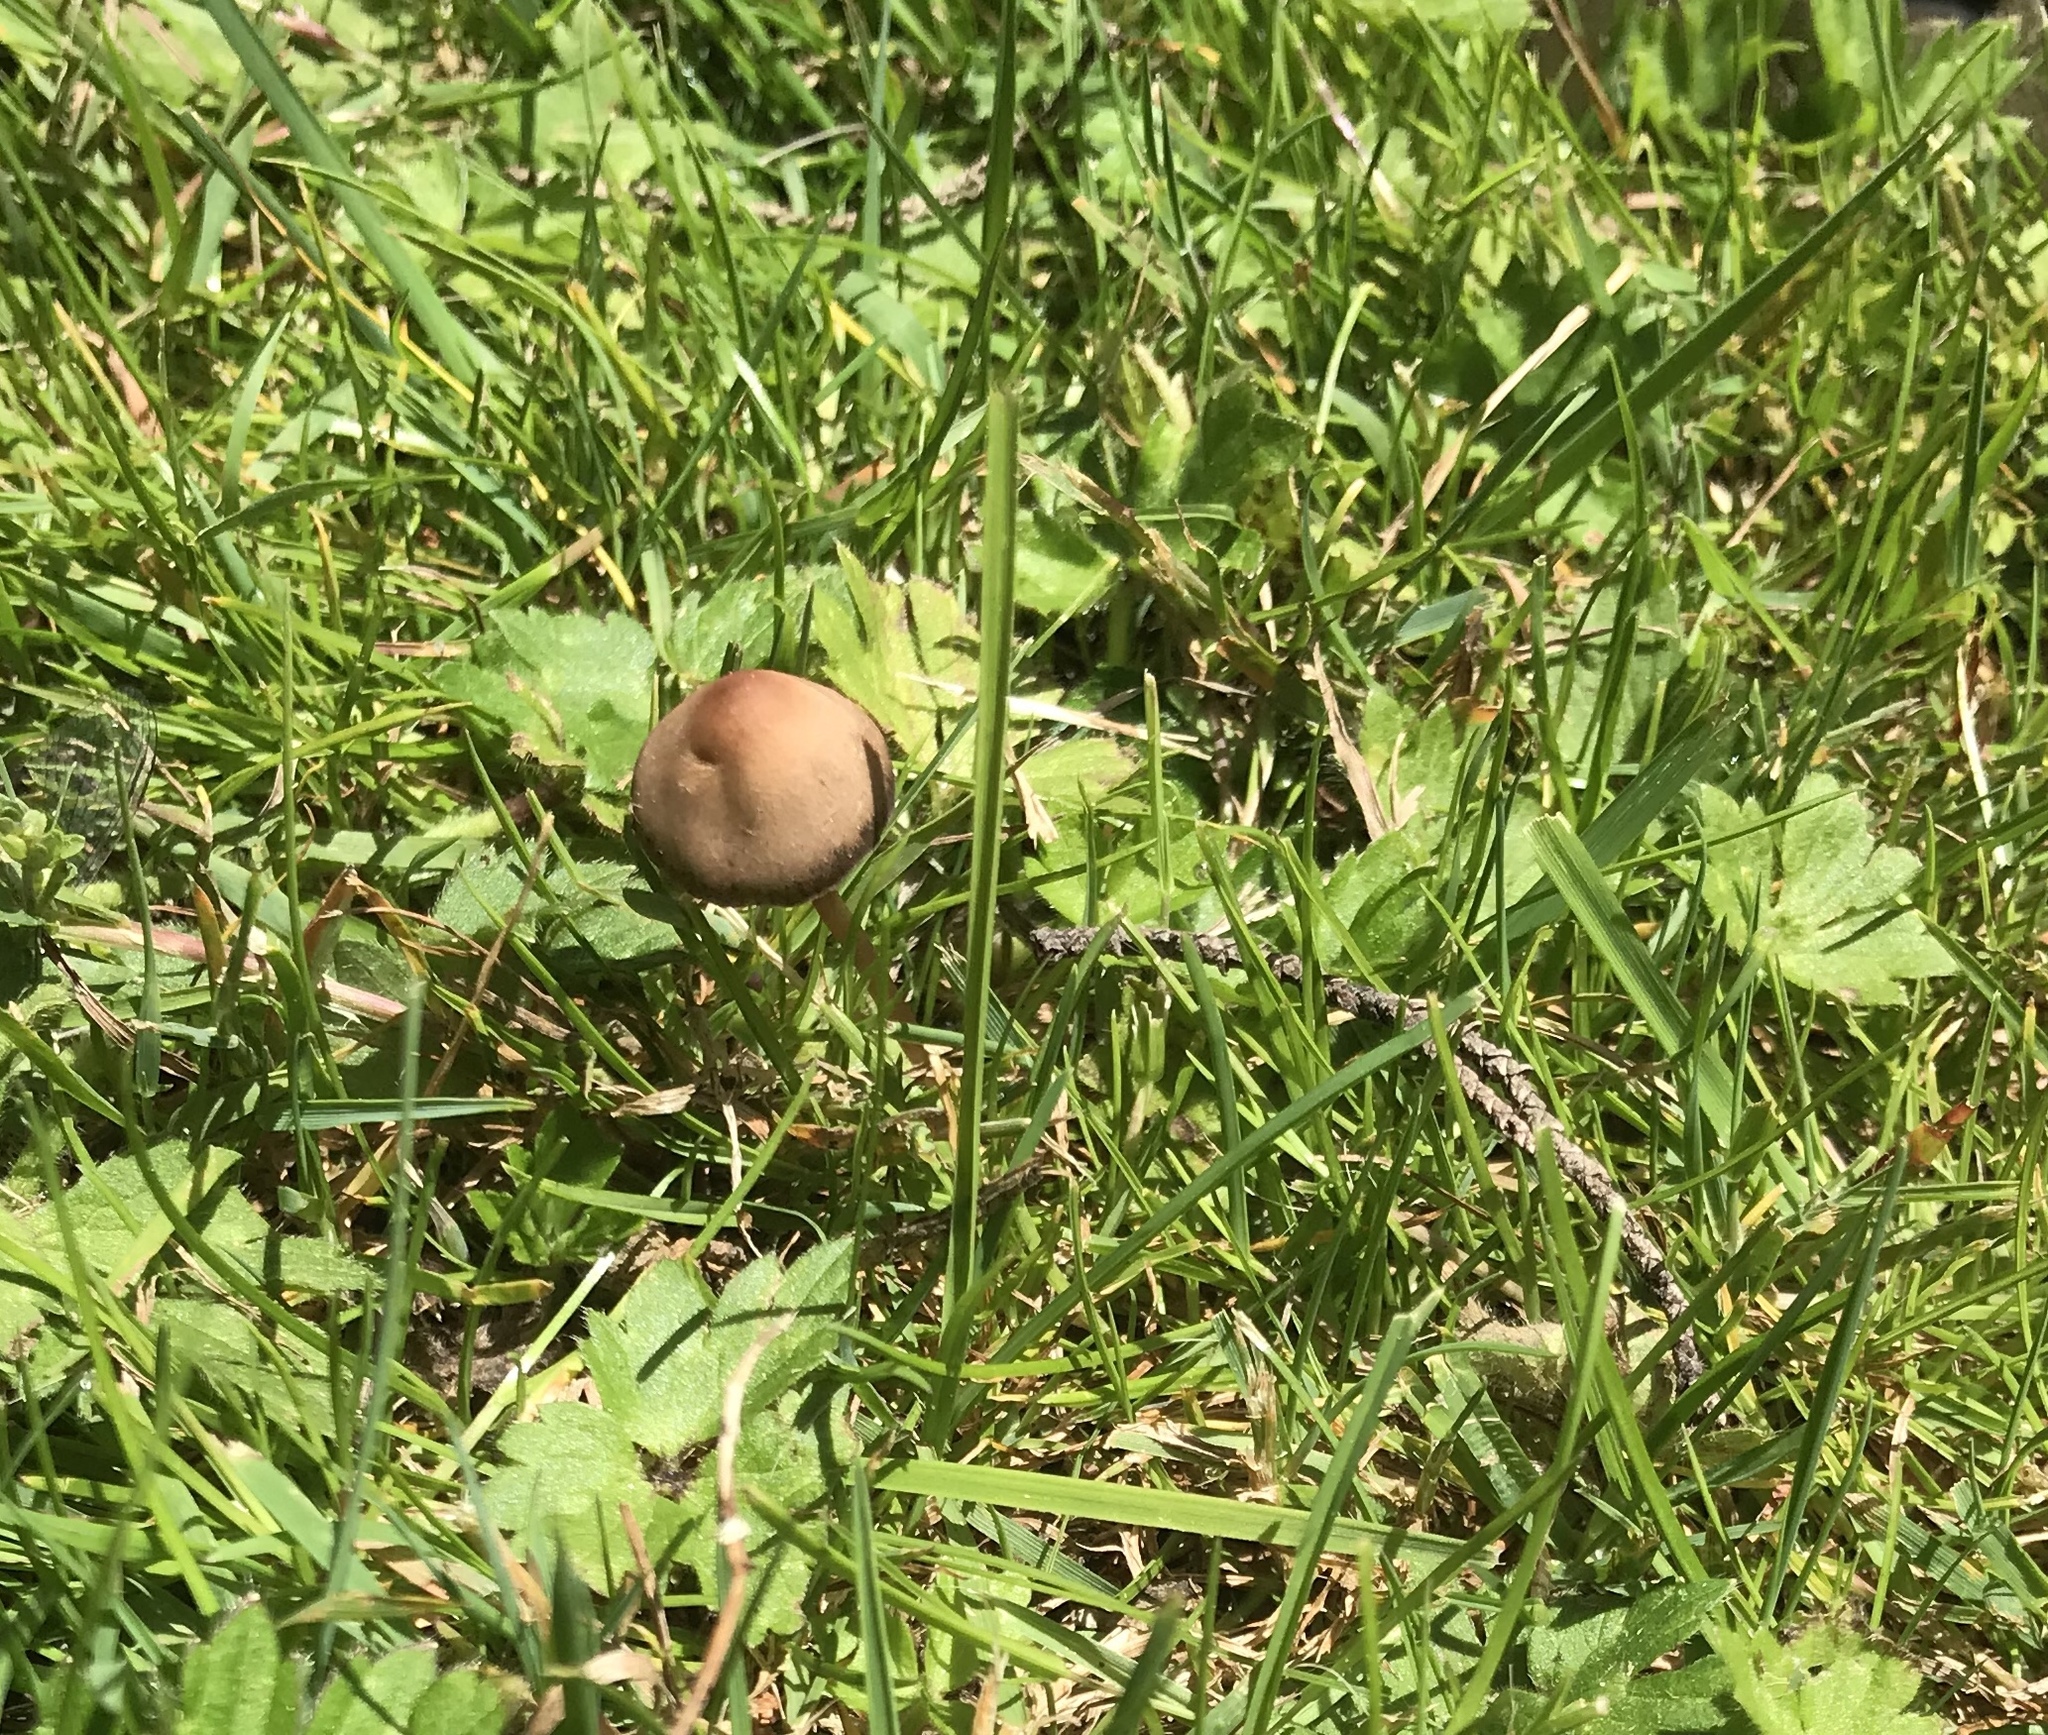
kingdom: Fungi
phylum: Basidiomycota
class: Agaricomycetes
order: Agaricales
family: Bolbitiaceae
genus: Panaeolina
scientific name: Panaeolina foenisecii
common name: Brown hay cap
